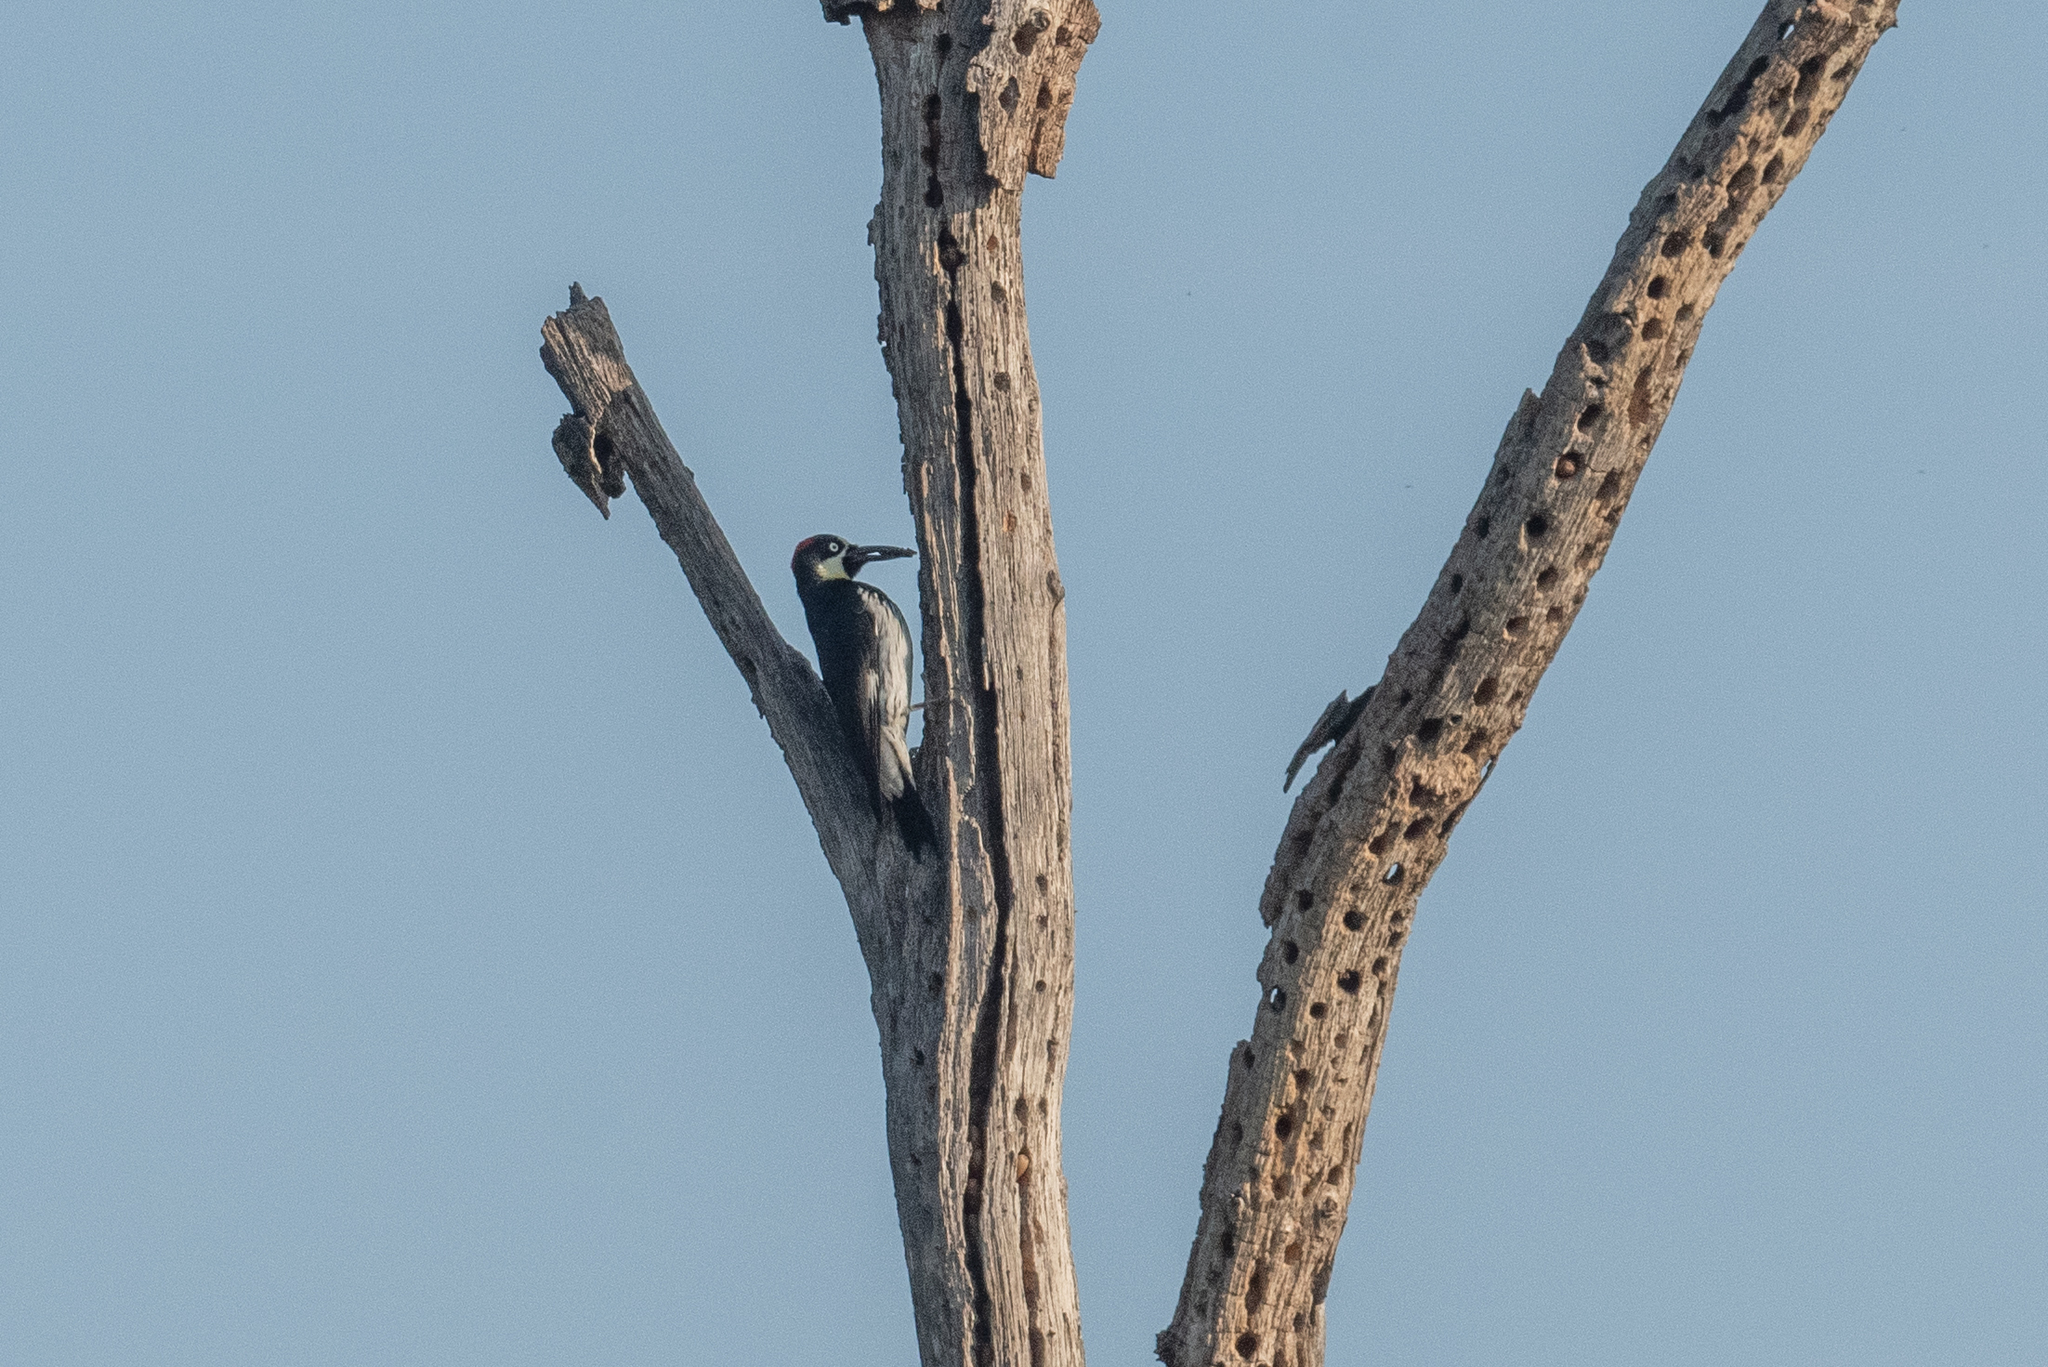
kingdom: Animalia
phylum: Chordata
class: Aves
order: Piciformes
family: Picidae
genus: Melanerpes
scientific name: Melanerpes formicivorus
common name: Acorn woodpecker
